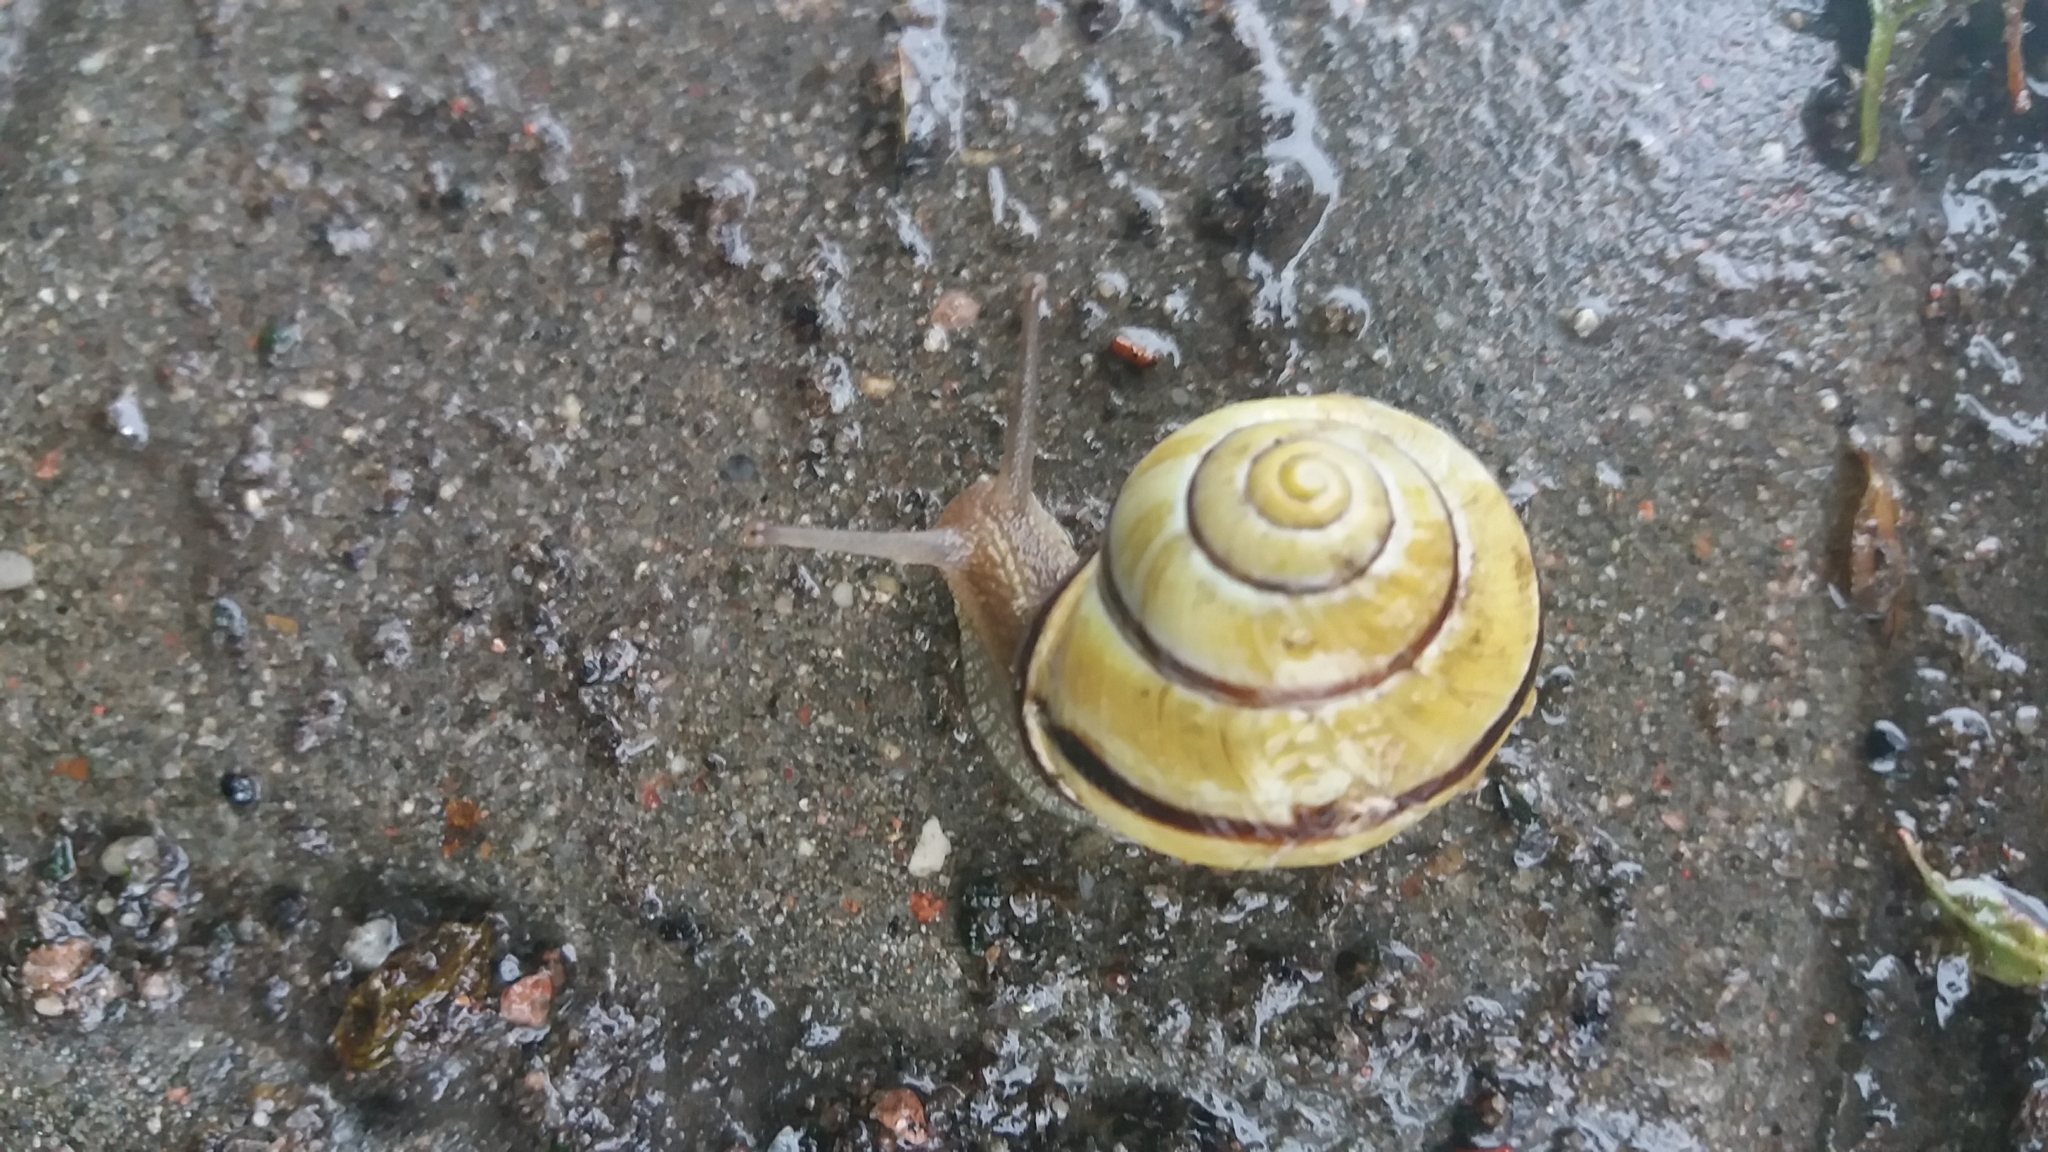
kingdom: Animalia
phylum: Mollusca
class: Gastropoda
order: Stylommatophora
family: Helicidae
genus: Cepaea
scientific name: Cepaea nemoralis
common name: Grovesnail
